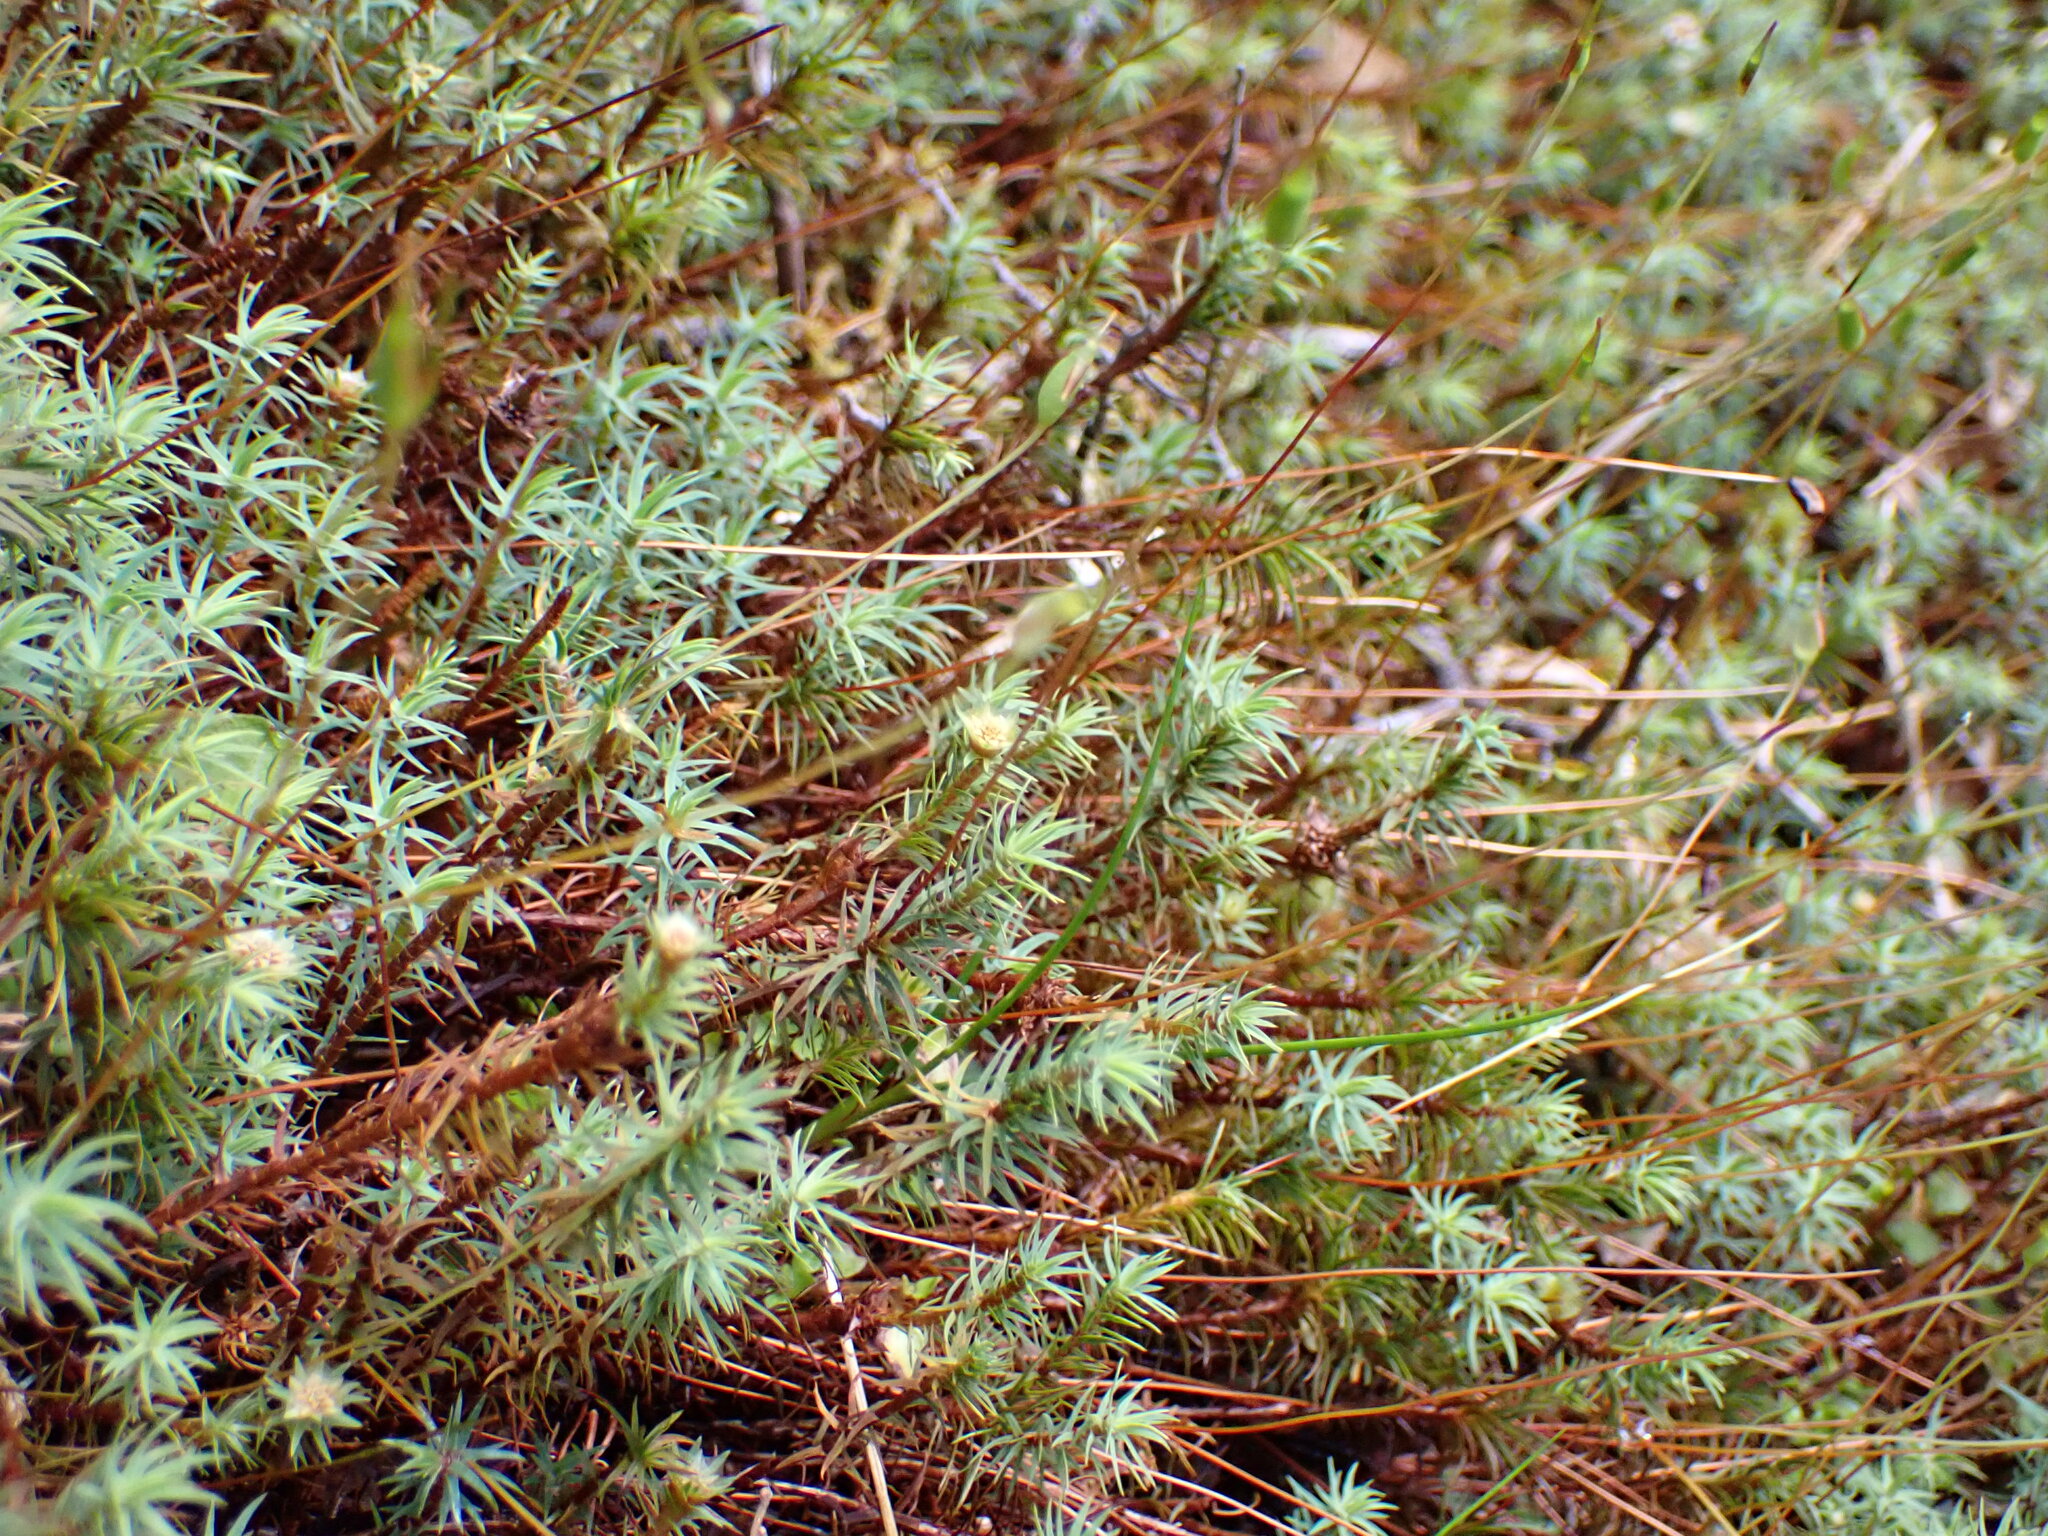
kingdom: Plantae
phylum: Bryophyta
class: Polytrichopsida
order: Polytrichales
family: Polytrichaceae
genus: Polytrichadelphus
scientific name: Polytrichadelphus magellanicus
